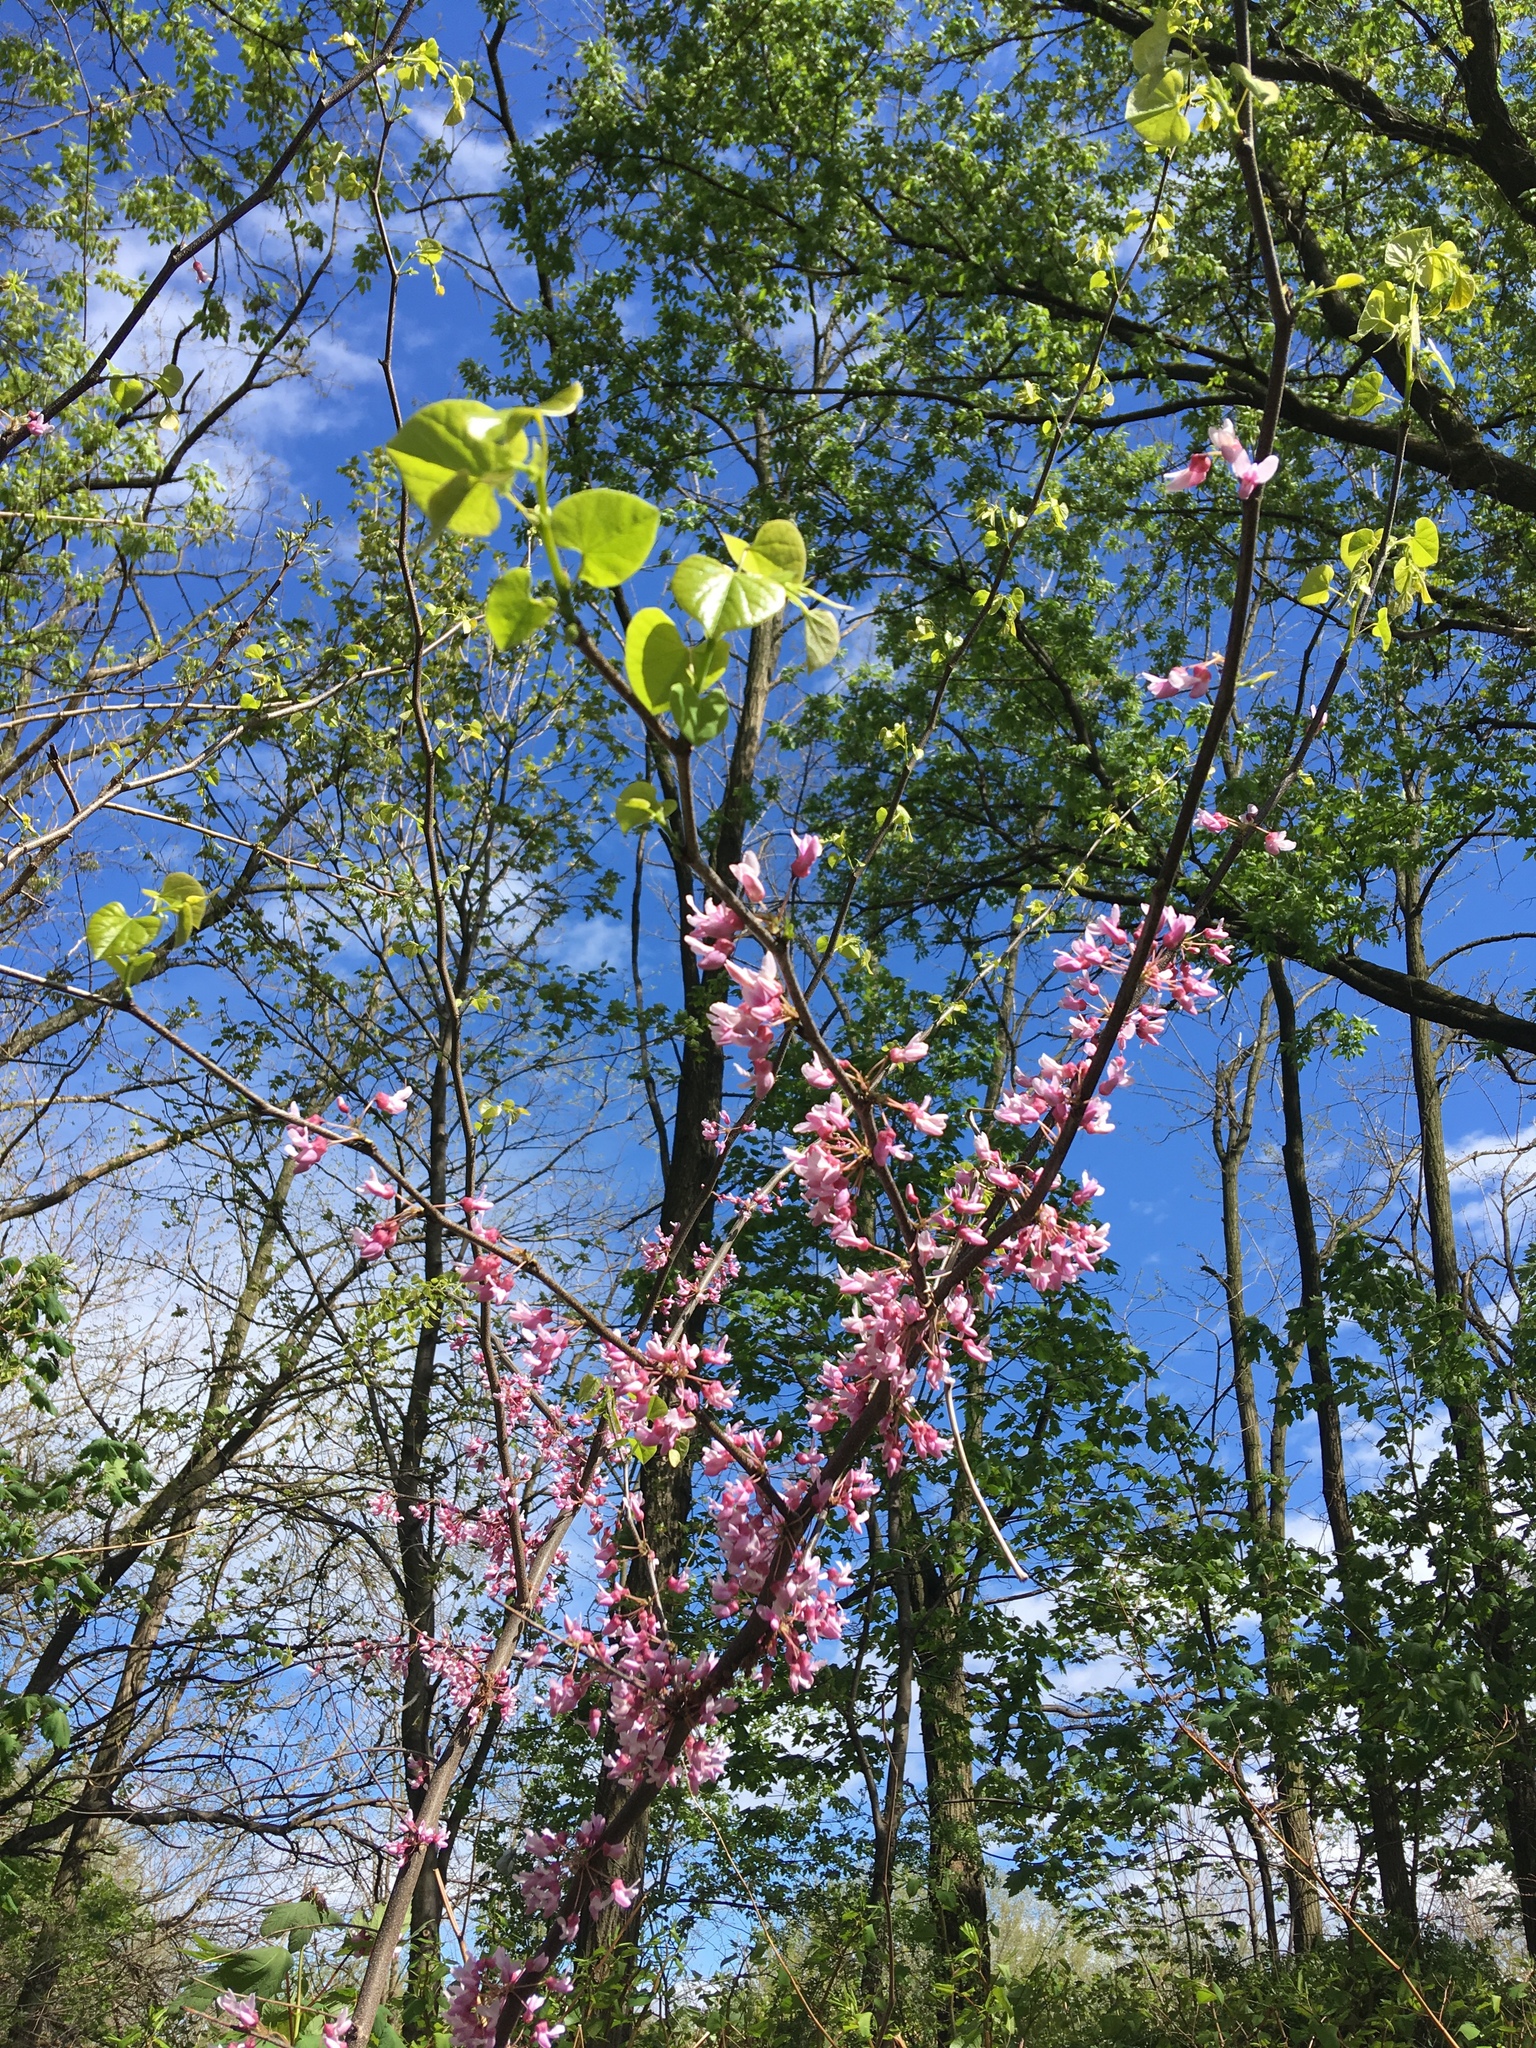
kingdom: Plantae
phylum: Tracheophyta
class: Magnoliopsida
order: Fabales
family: Fabaceae
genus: Cercis
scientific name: Cercis canadensis
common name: Eastern redbud
